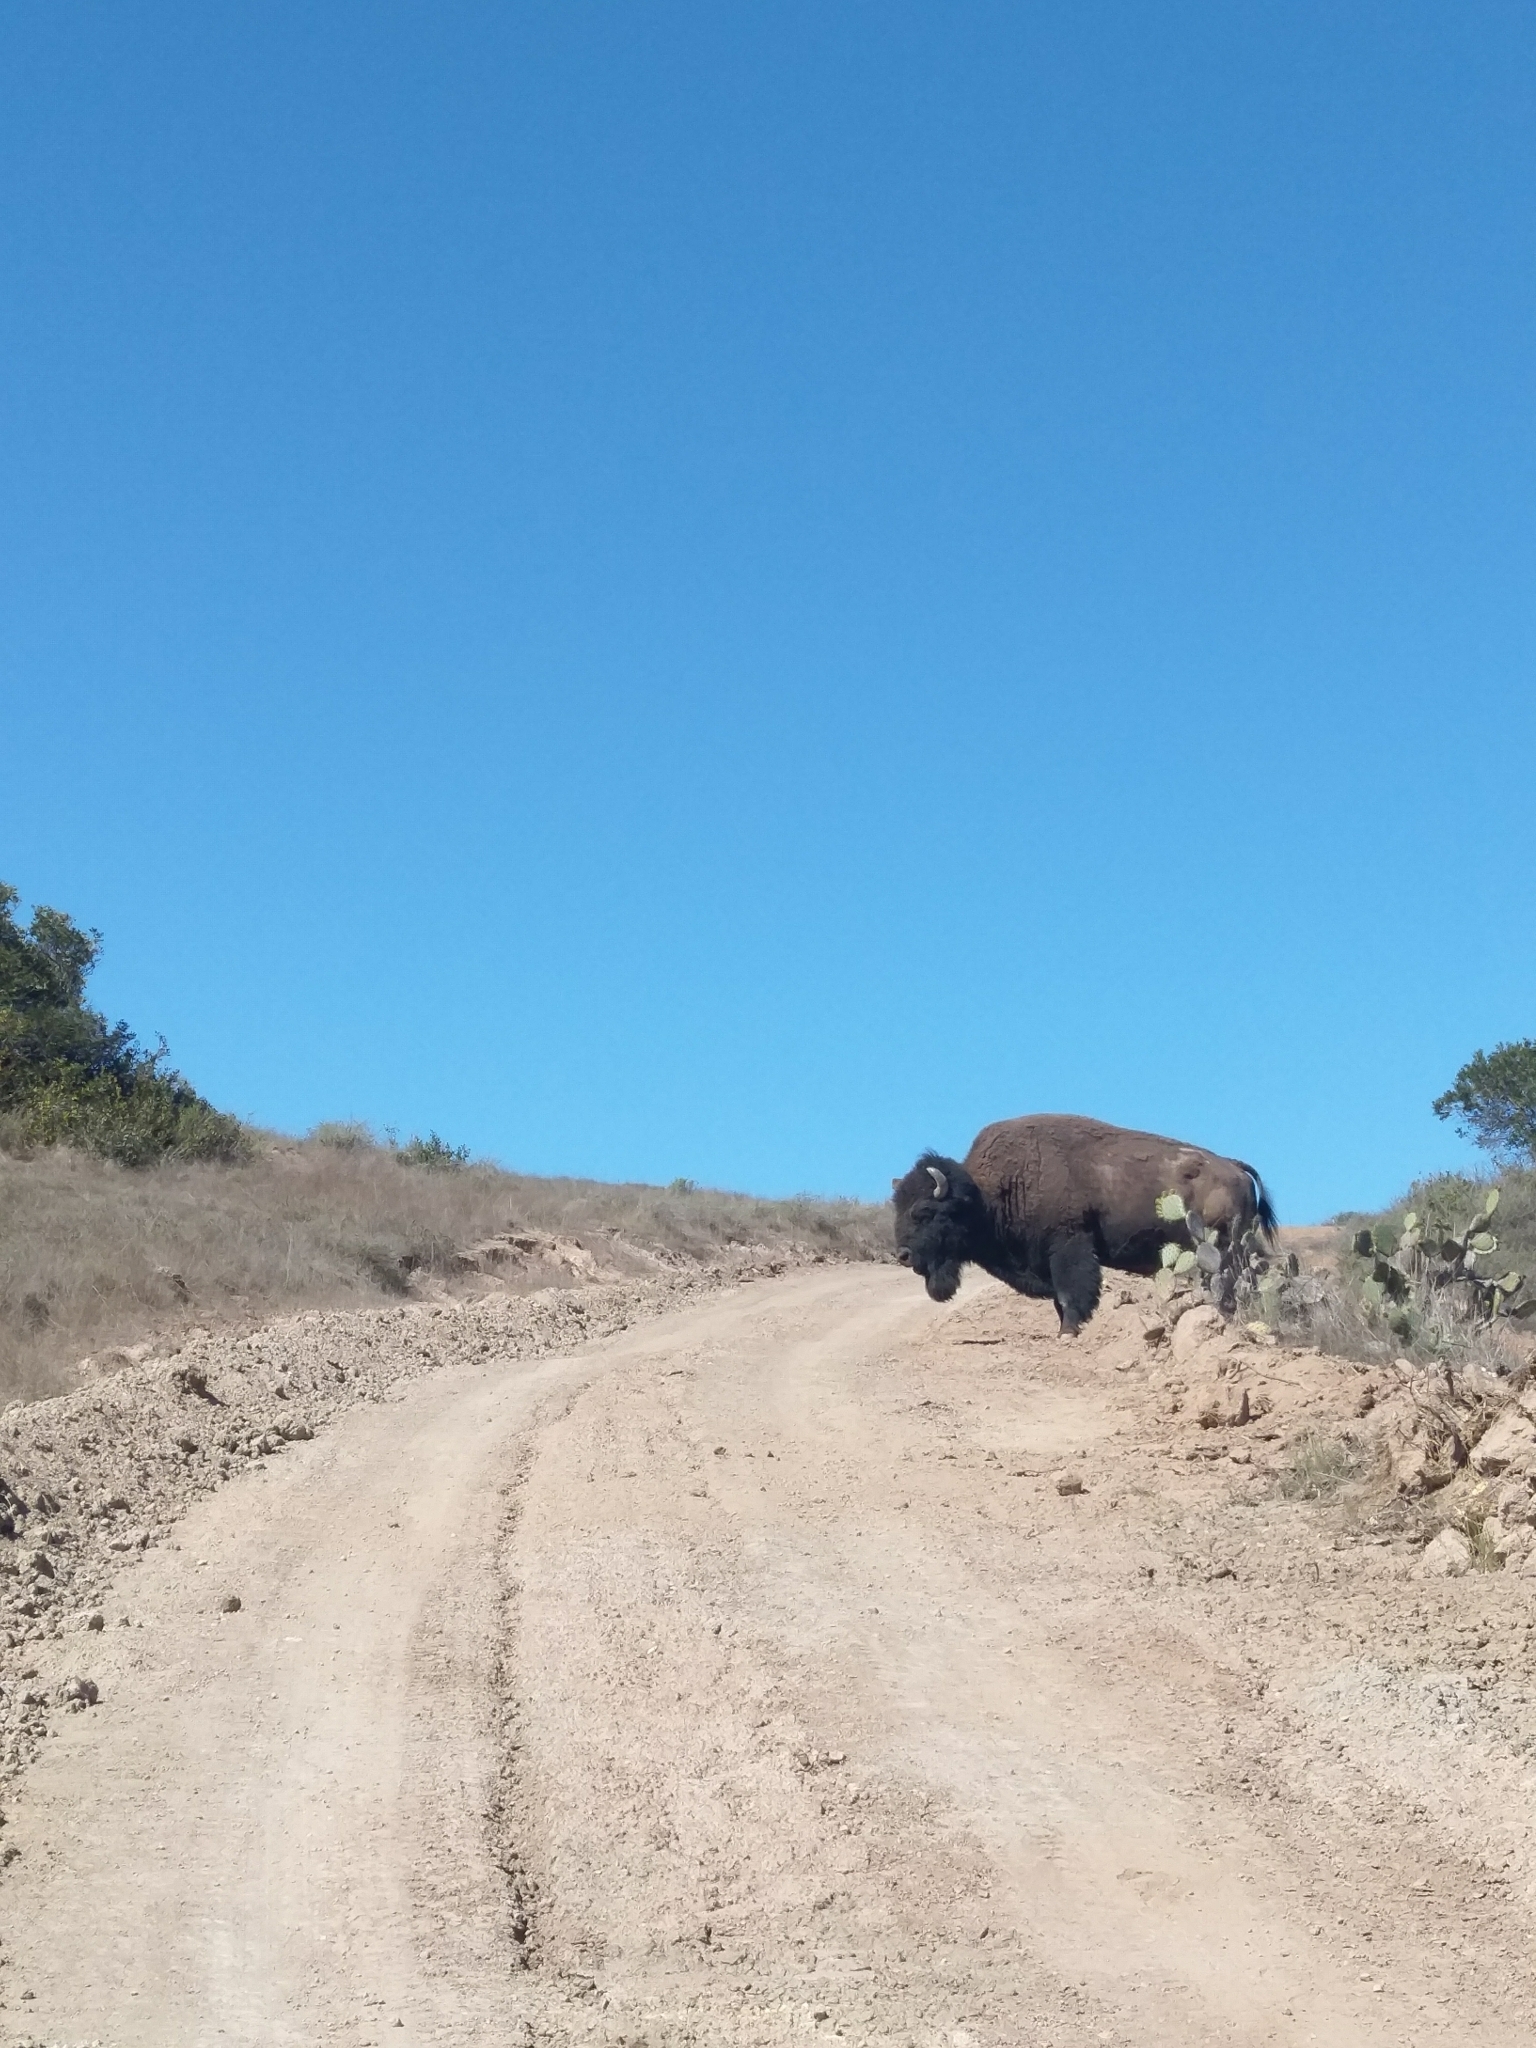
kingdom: Animalia
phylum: Chordata
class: Mammalia
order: Artiodactyla
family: Bovidae
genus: Bison
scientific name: Bison bison
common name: American bison
